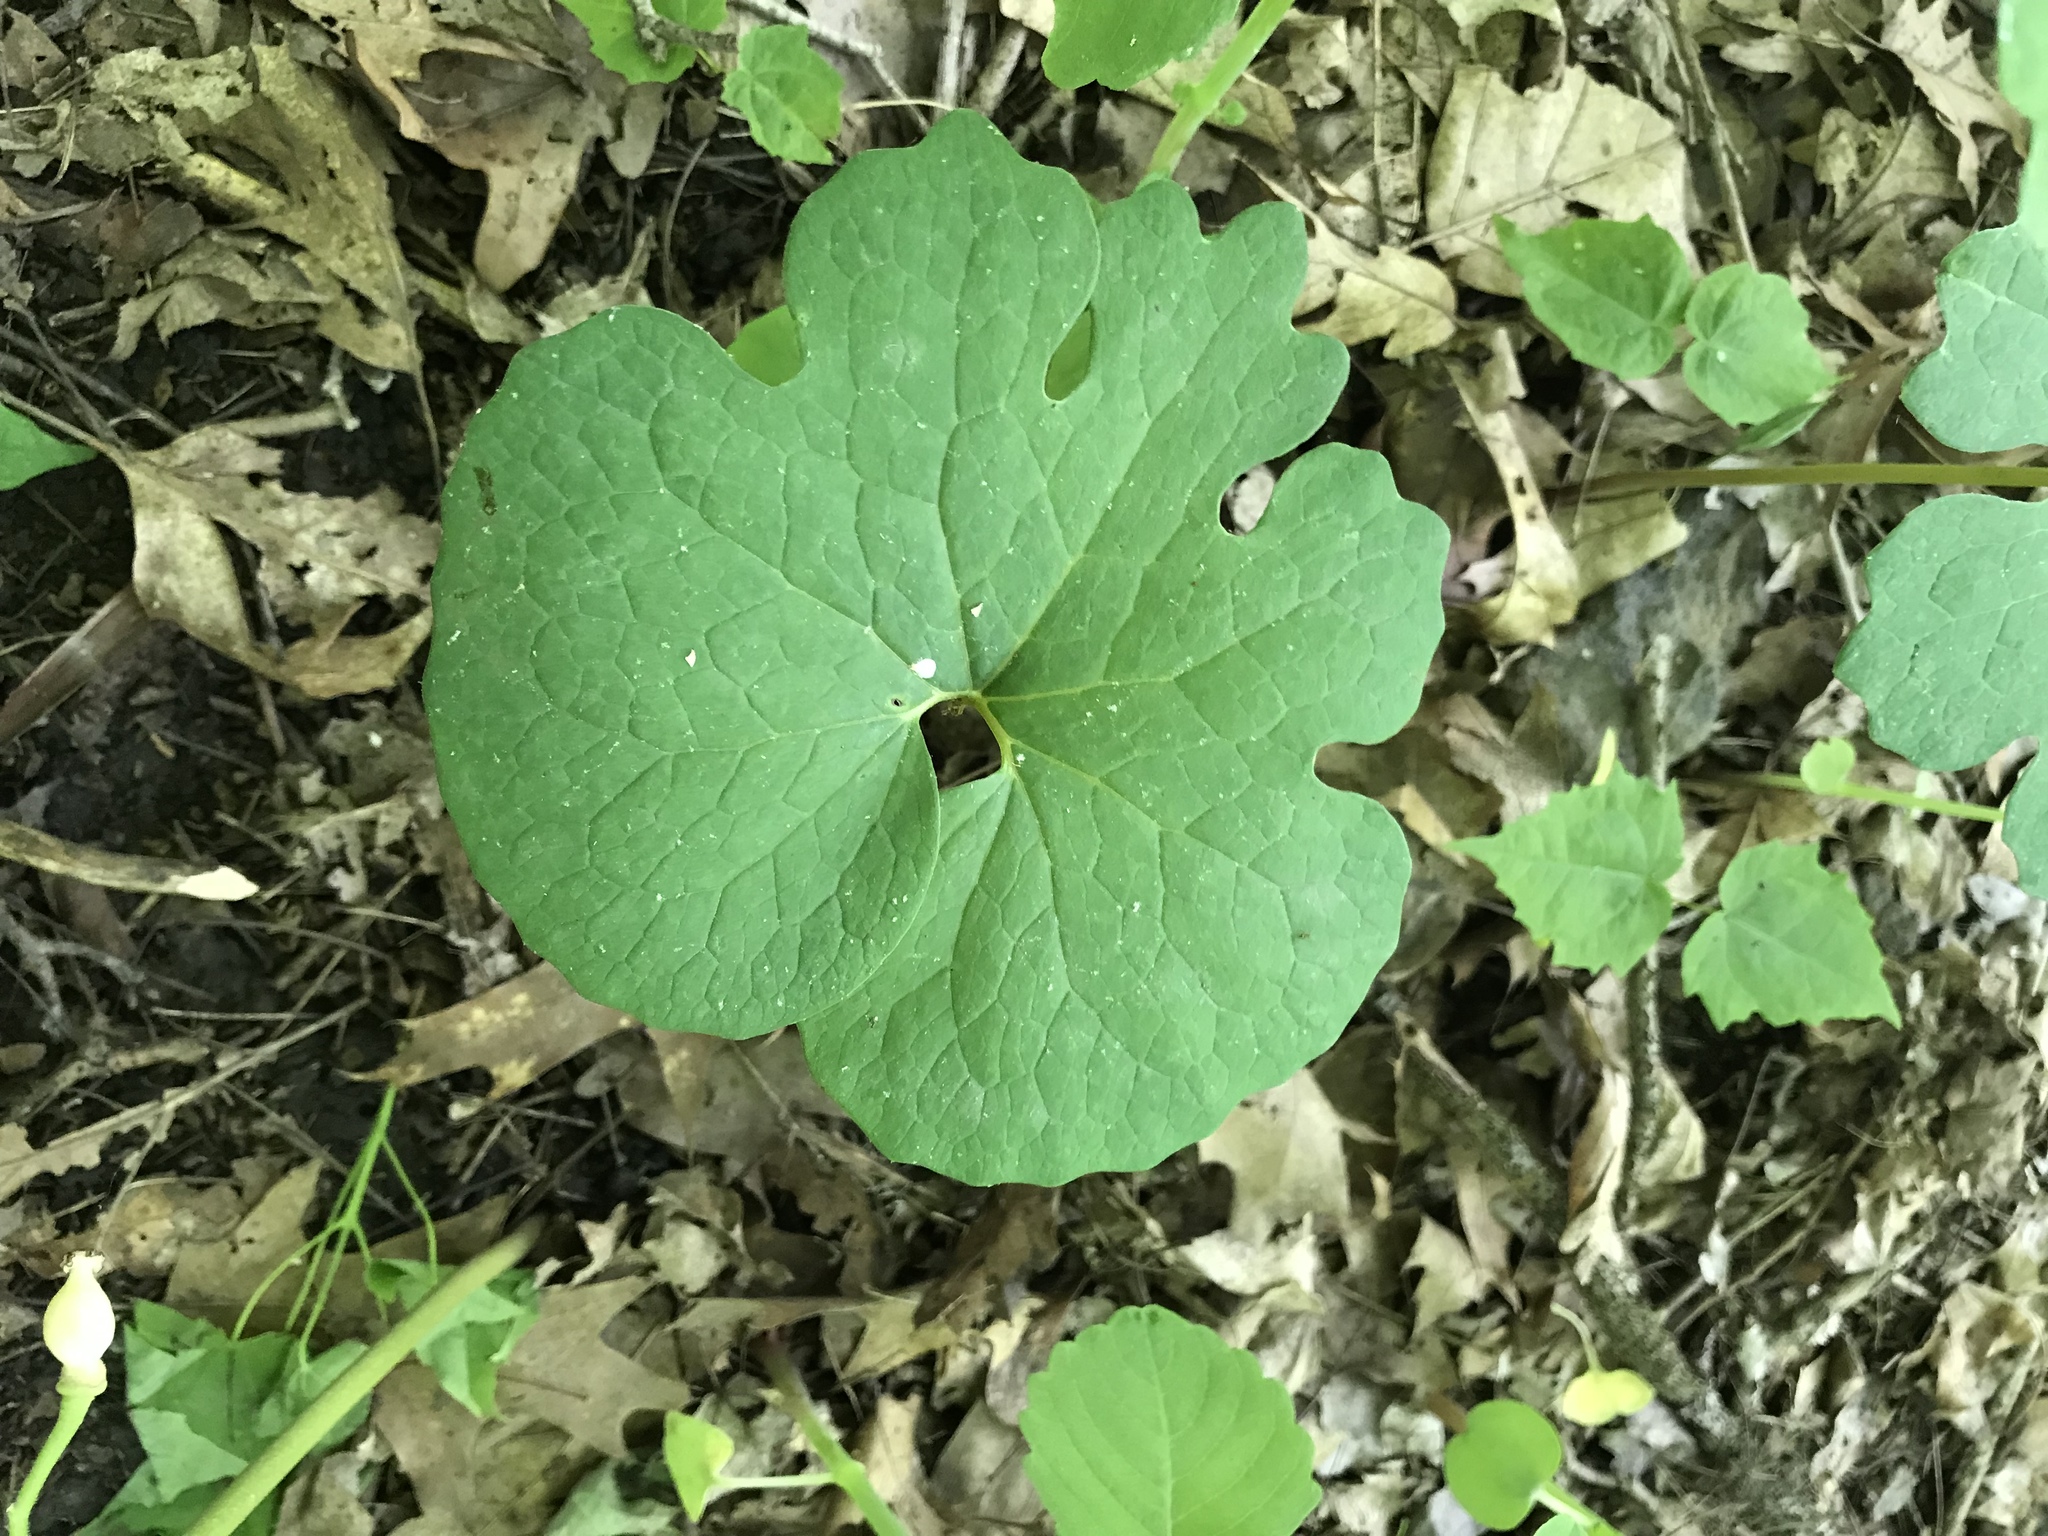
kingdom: Plantae
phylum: Tracheophyta
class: Magnoliopsida
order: Ranunculales
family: Papaveraceae
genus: Sanguinaria
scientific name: Sanguinaria canadensis
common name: Bloodroot
